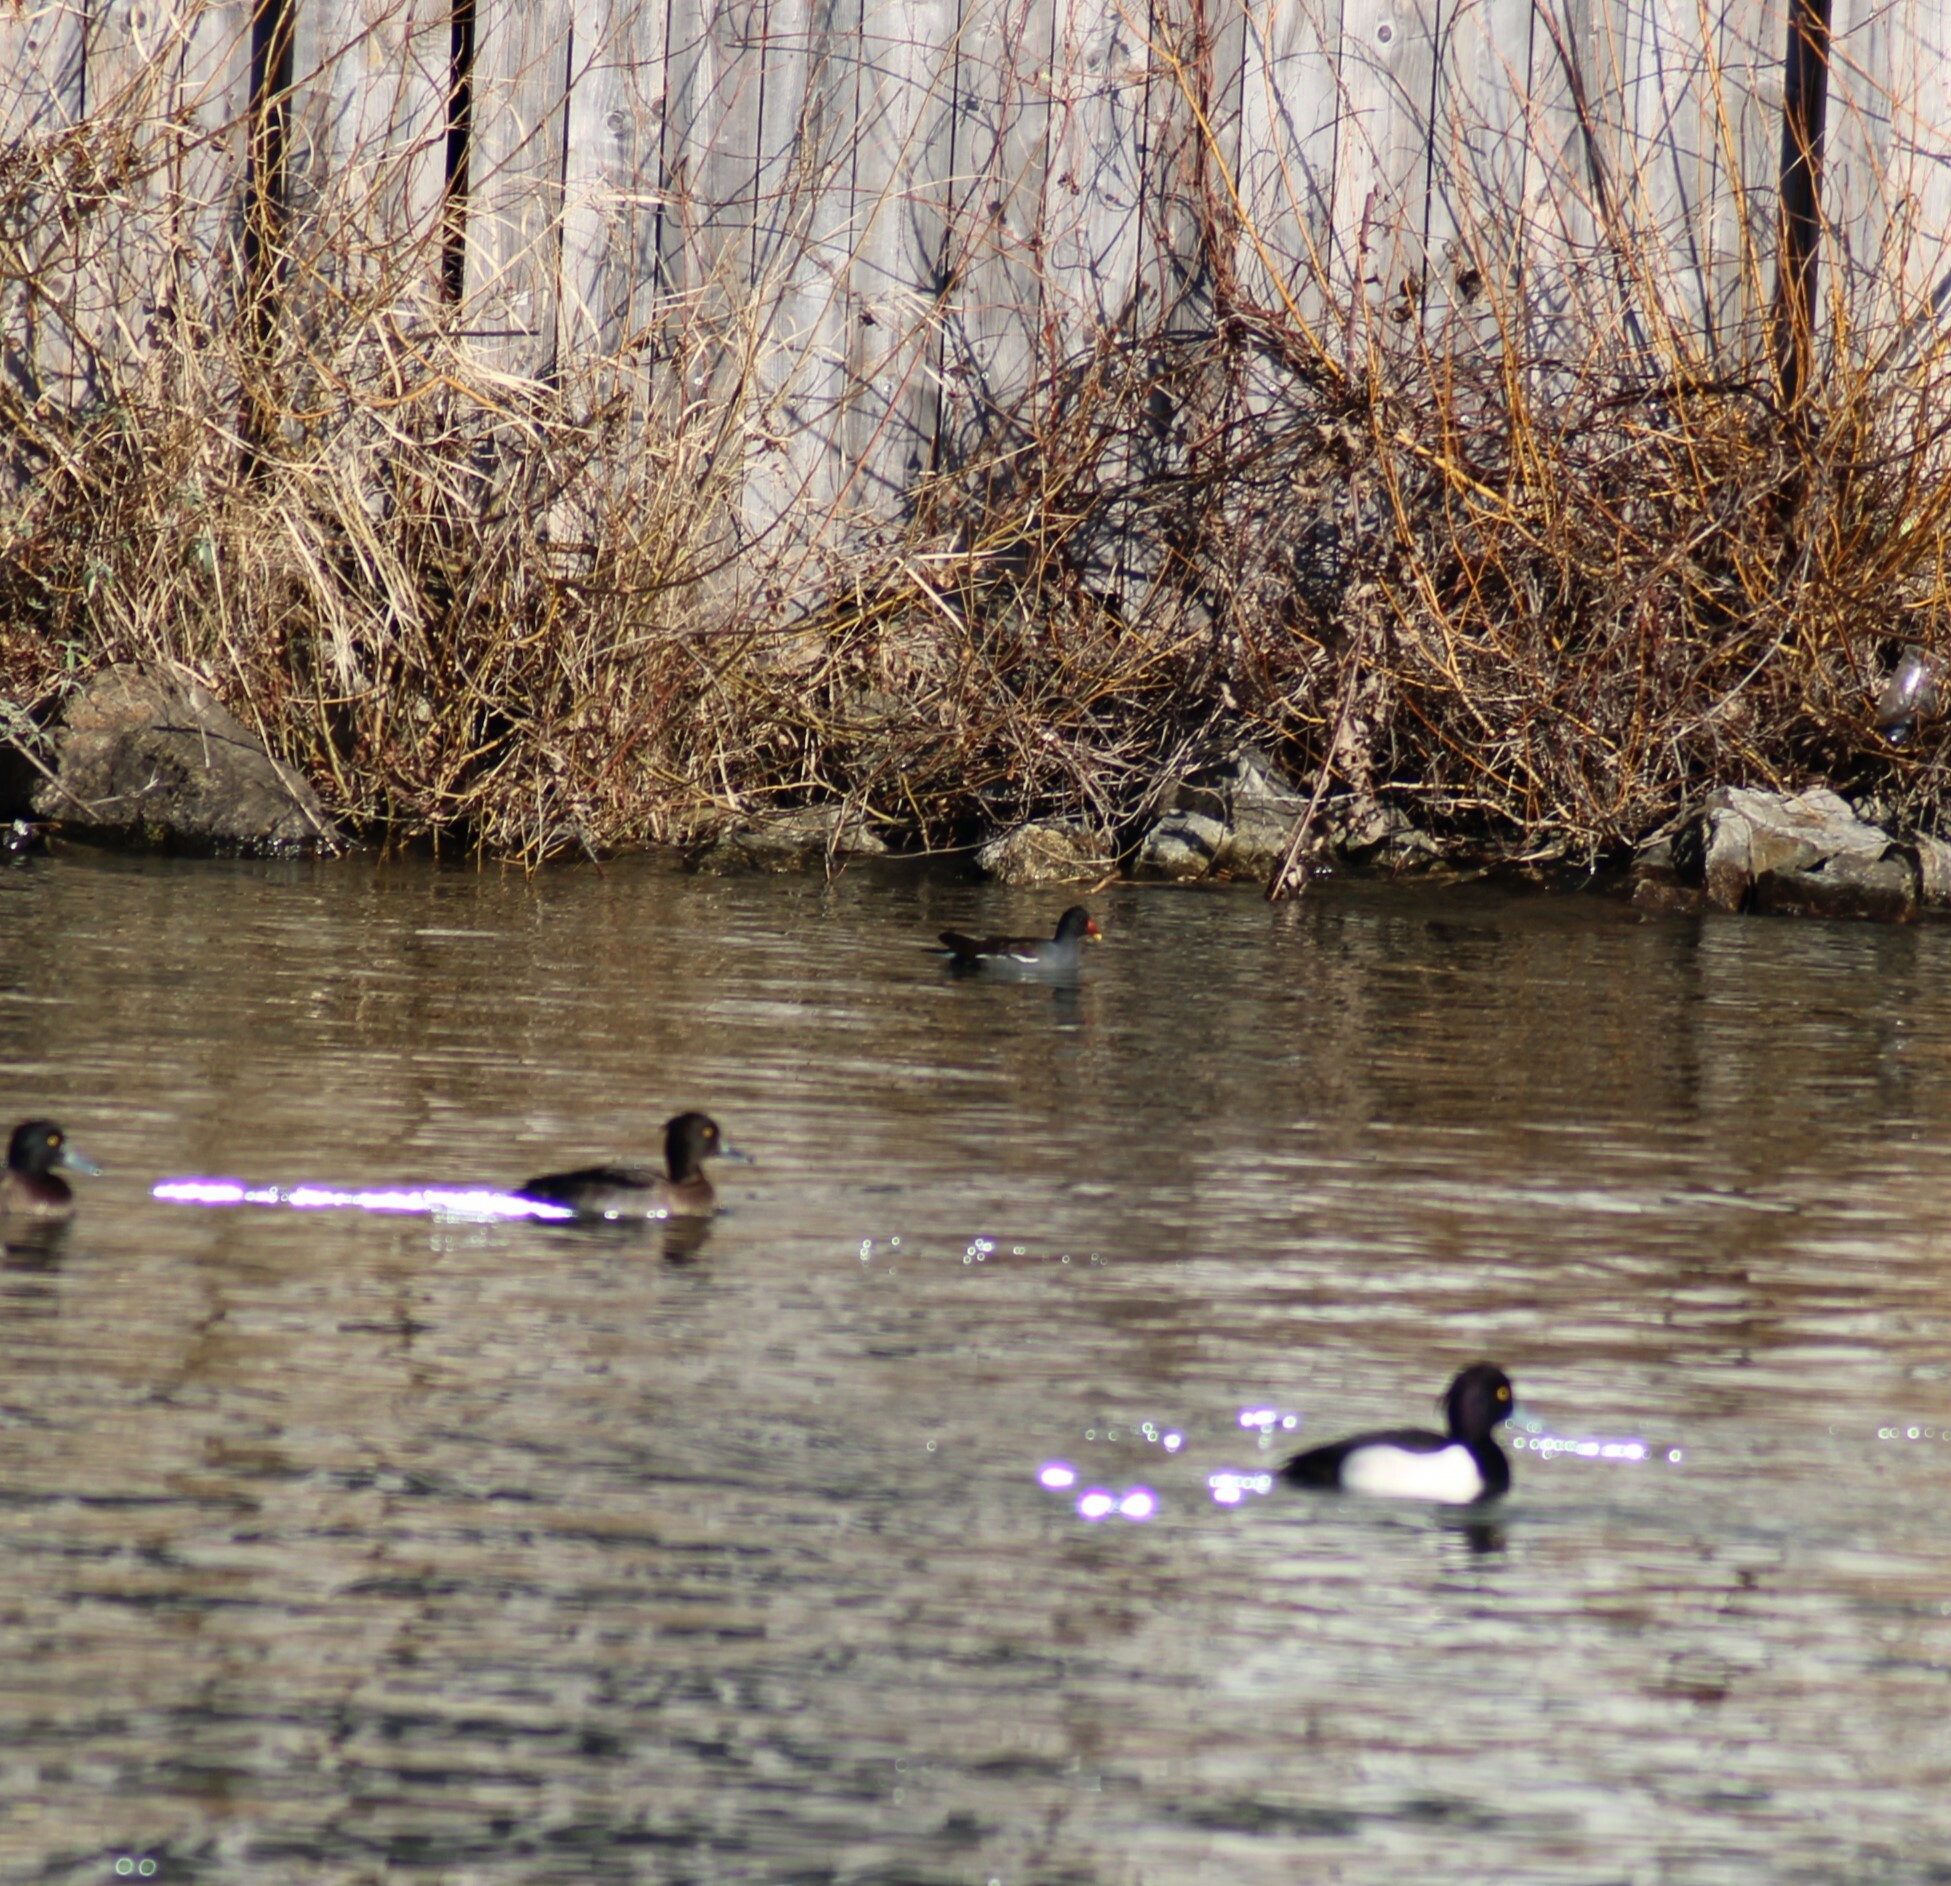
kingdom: Animalia
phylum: Chordata
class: Aves
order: Gruiformes
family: Rallidae
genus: Gallinula
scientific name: Gallinula chloropus
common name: Common moorhen
